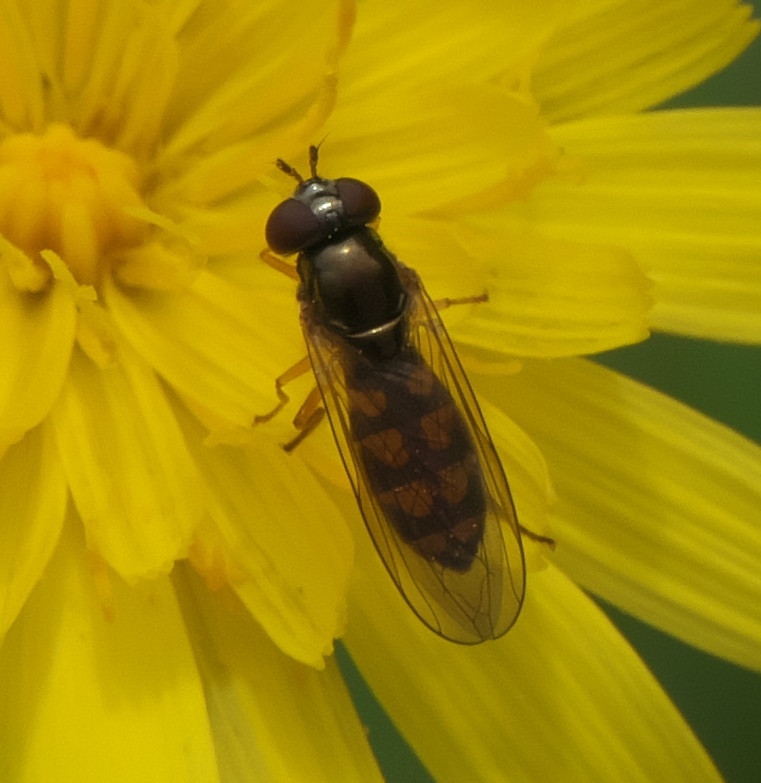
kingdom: Animalia
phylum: Arthropoda
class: Insecta
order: Diptera
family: Syrphidae
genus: Melanostoma
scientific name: Melanostoma fasciatum
